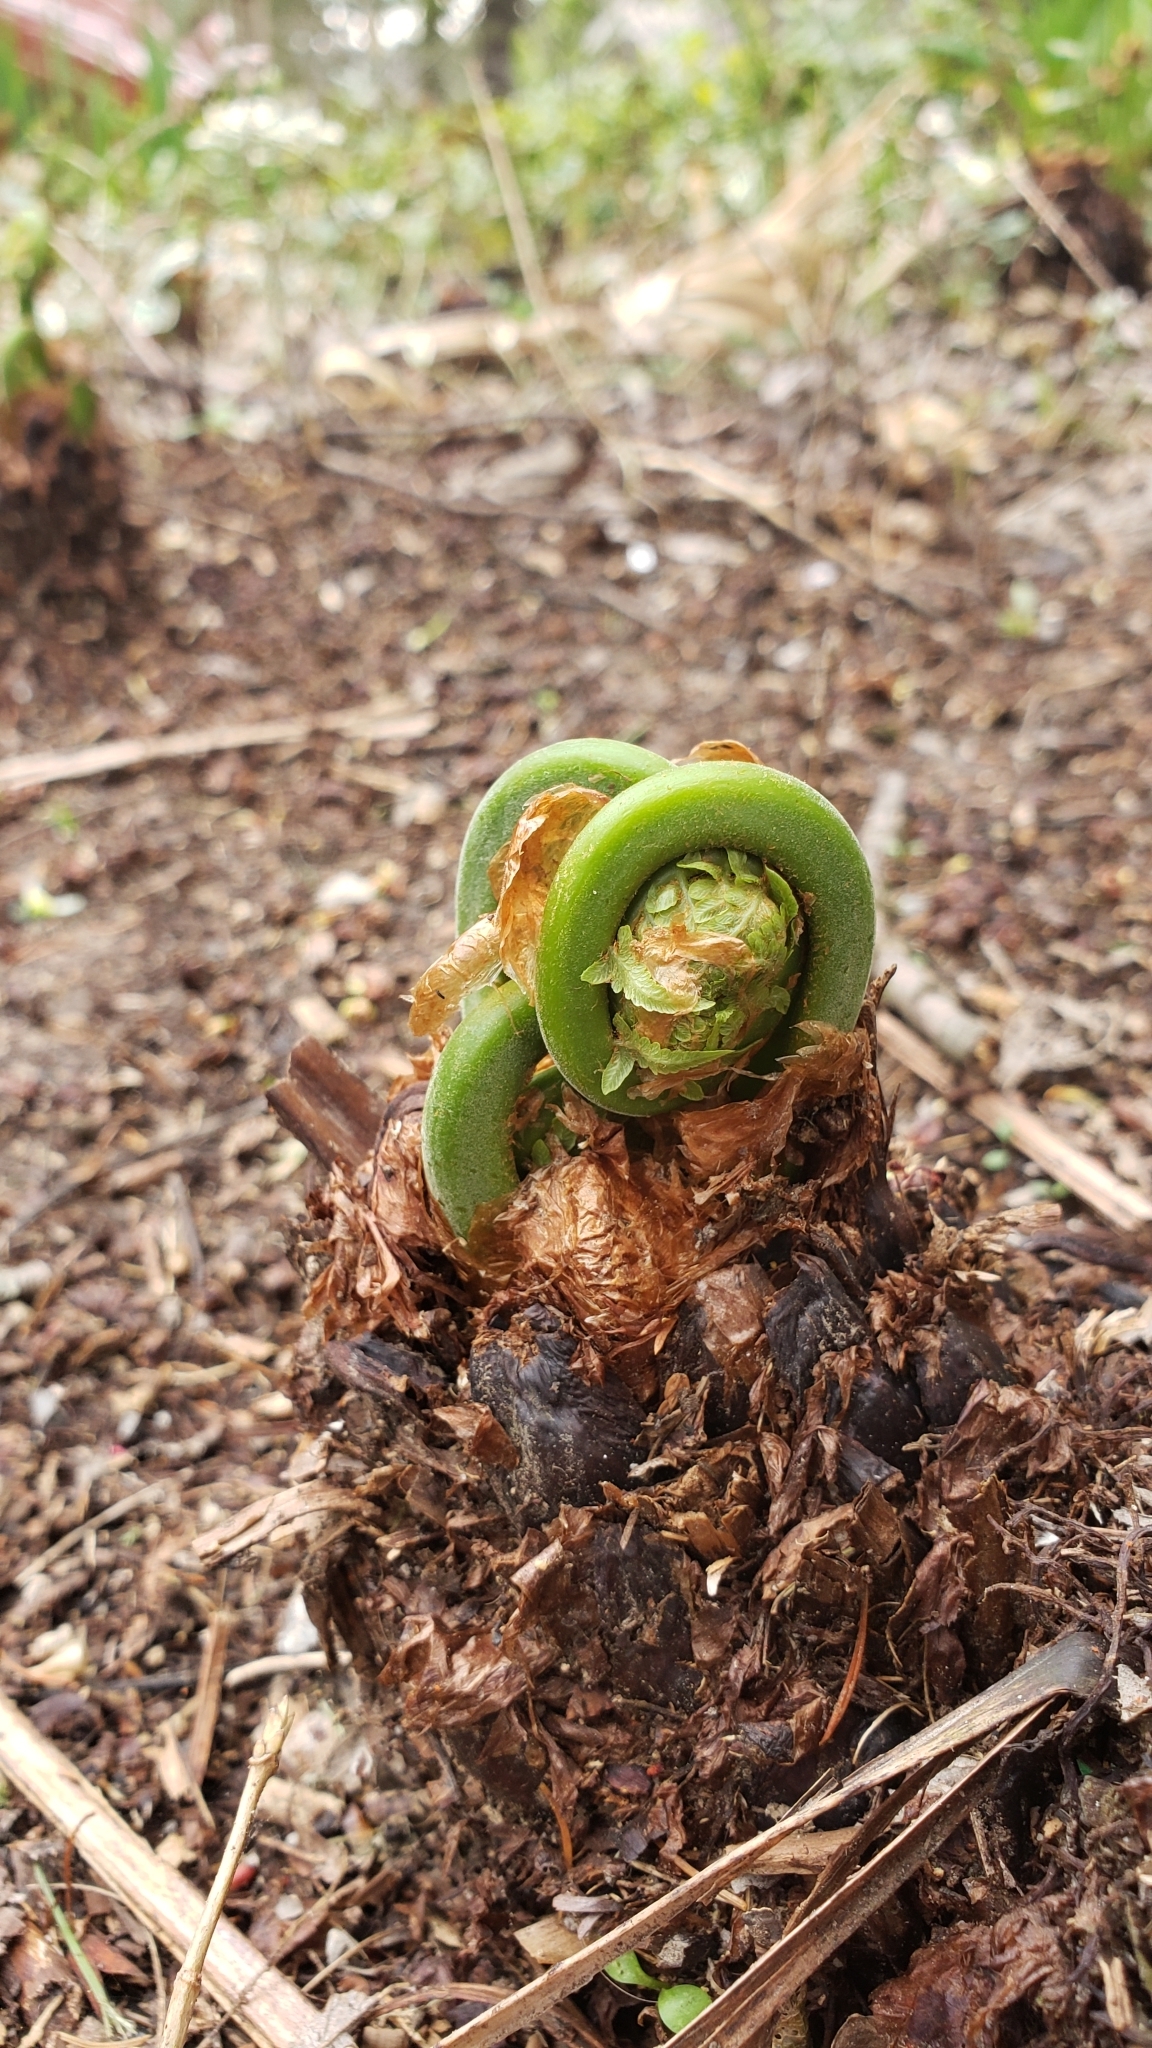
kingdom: Plantae
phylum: Tracheophyta
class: Polypodiopsida
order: Polypodiales
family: Onocleaceae
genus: Matteuccia
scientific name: Matteuccia struthiopteris
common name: Ostrich fern
